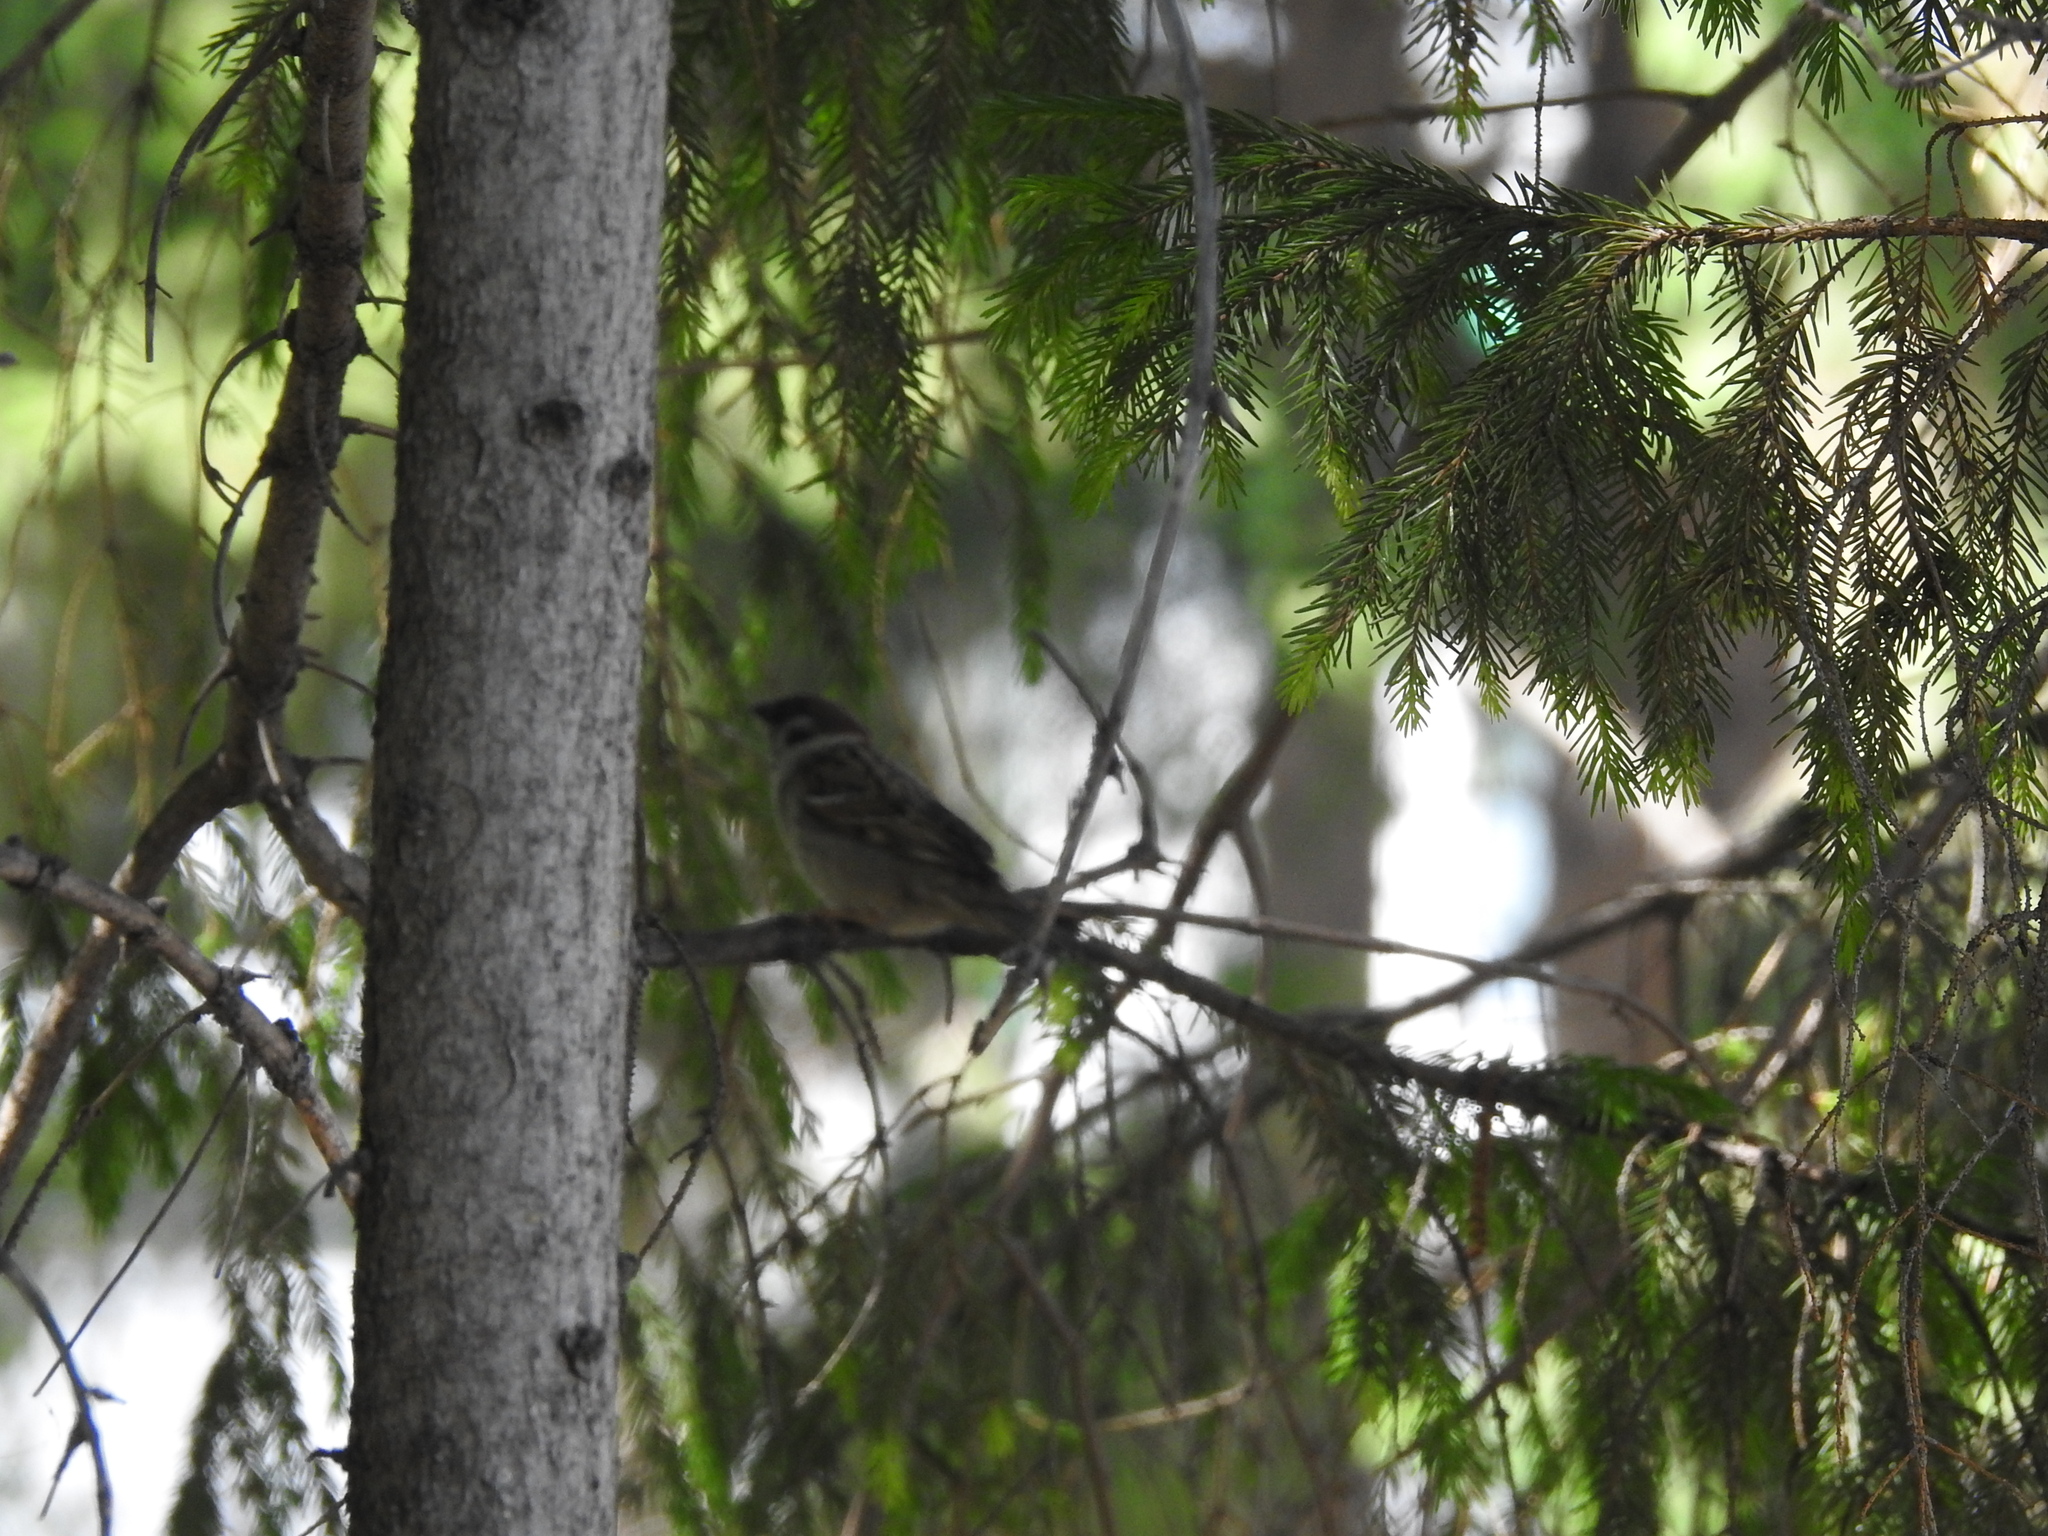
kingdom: Animalia
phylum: Chordata
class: Aves
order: Passeriformes
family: Passeridae
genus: Passer
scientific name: Passer montanus
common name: Eurasian tree sparrow
